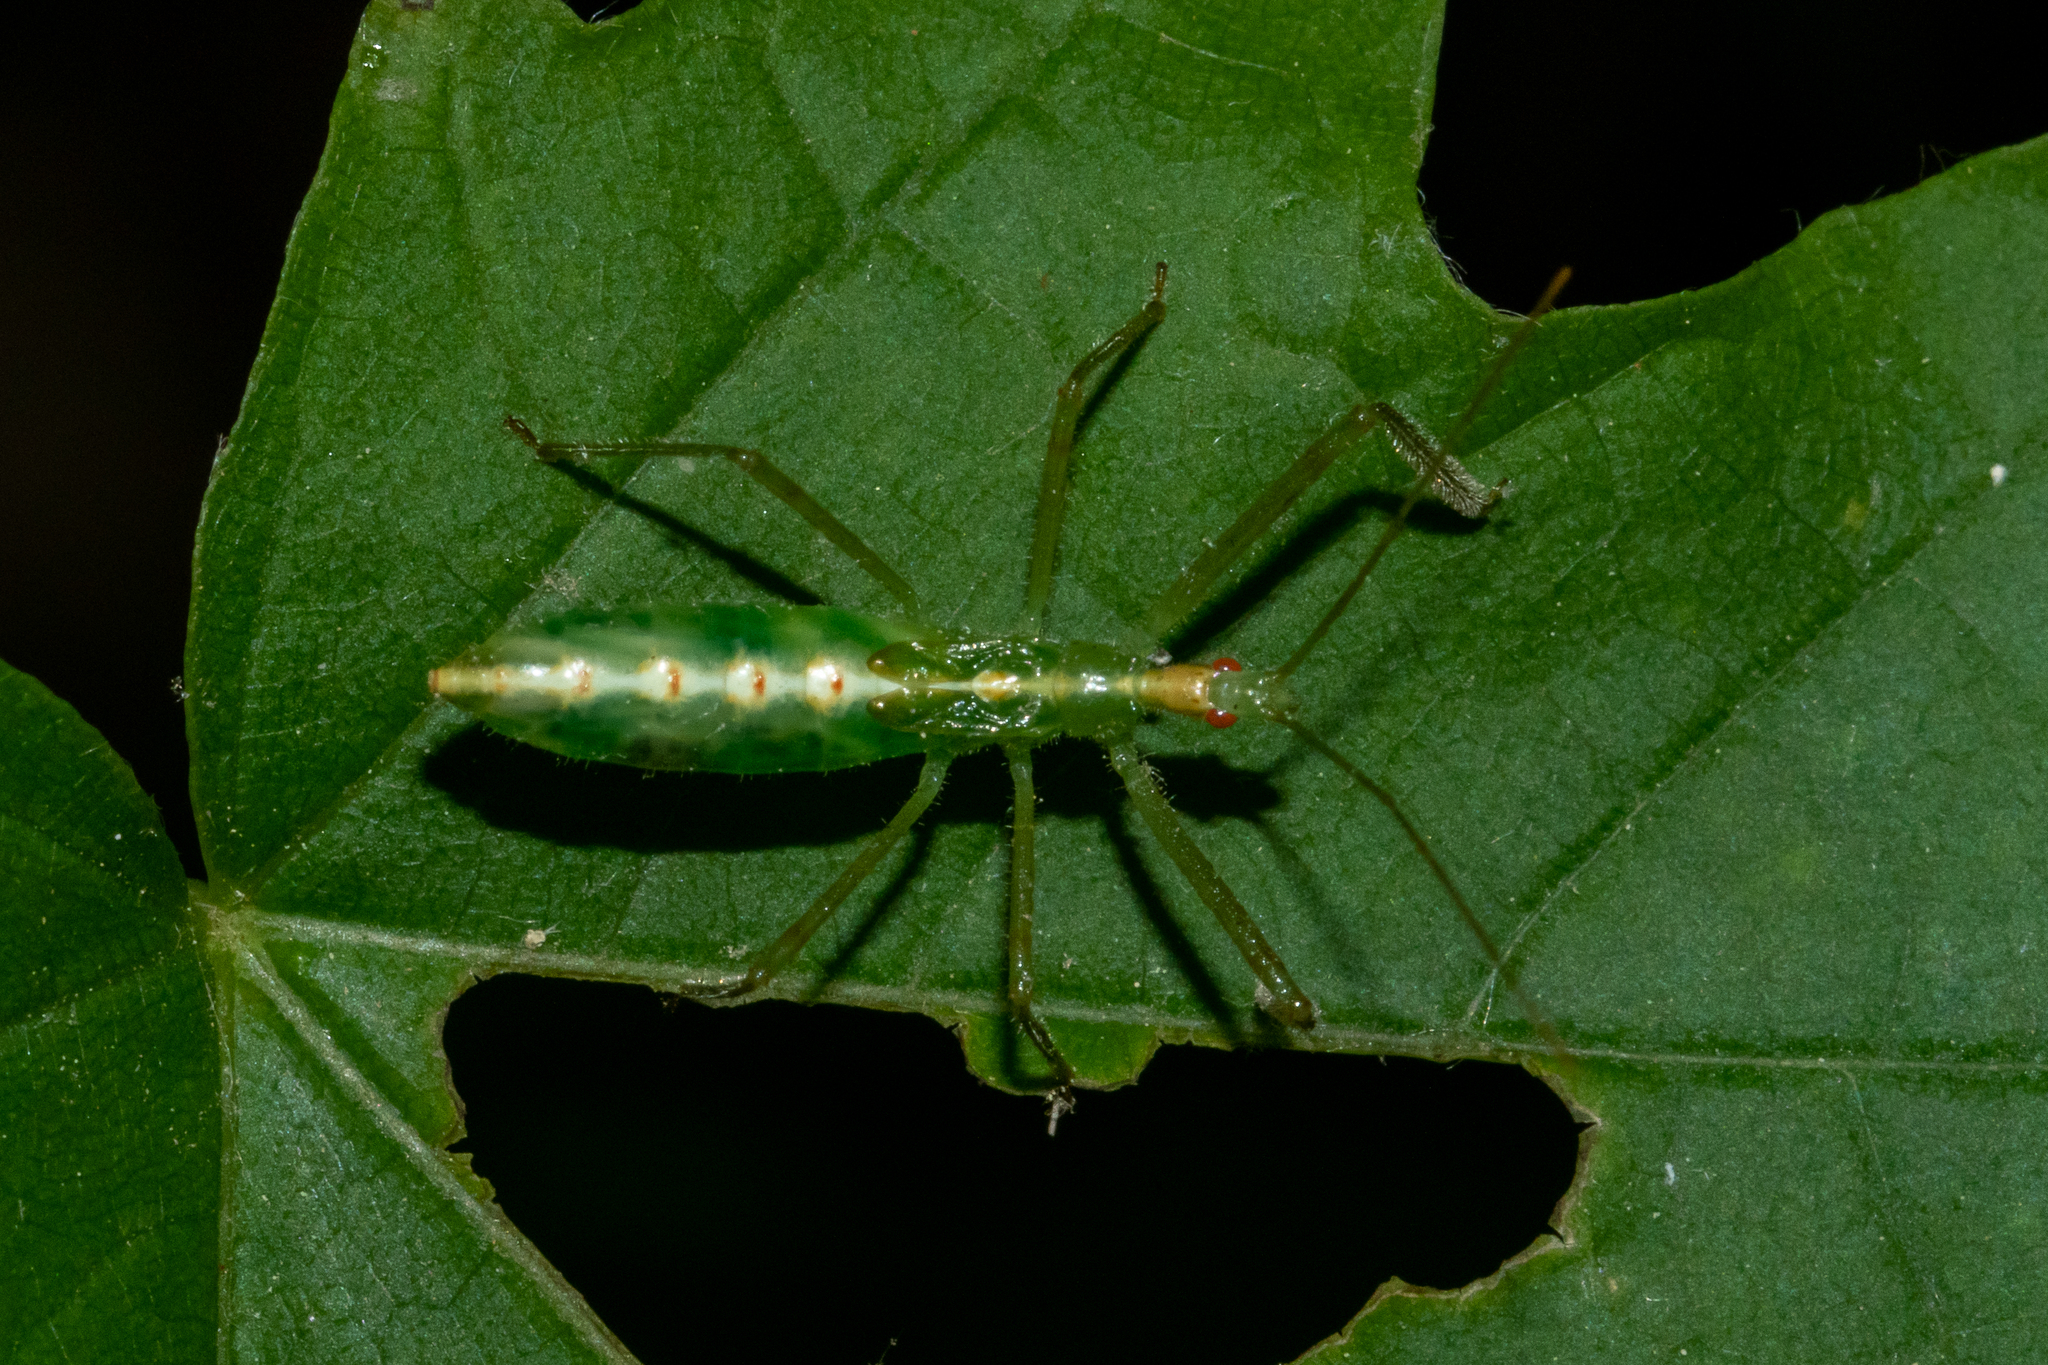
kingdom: Animalia
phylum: Arthropoda
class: Insecta
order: Hemiptera
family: Reduviidae
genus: Zelus
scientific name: Zelus luridus
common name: Pale green assassin bug
